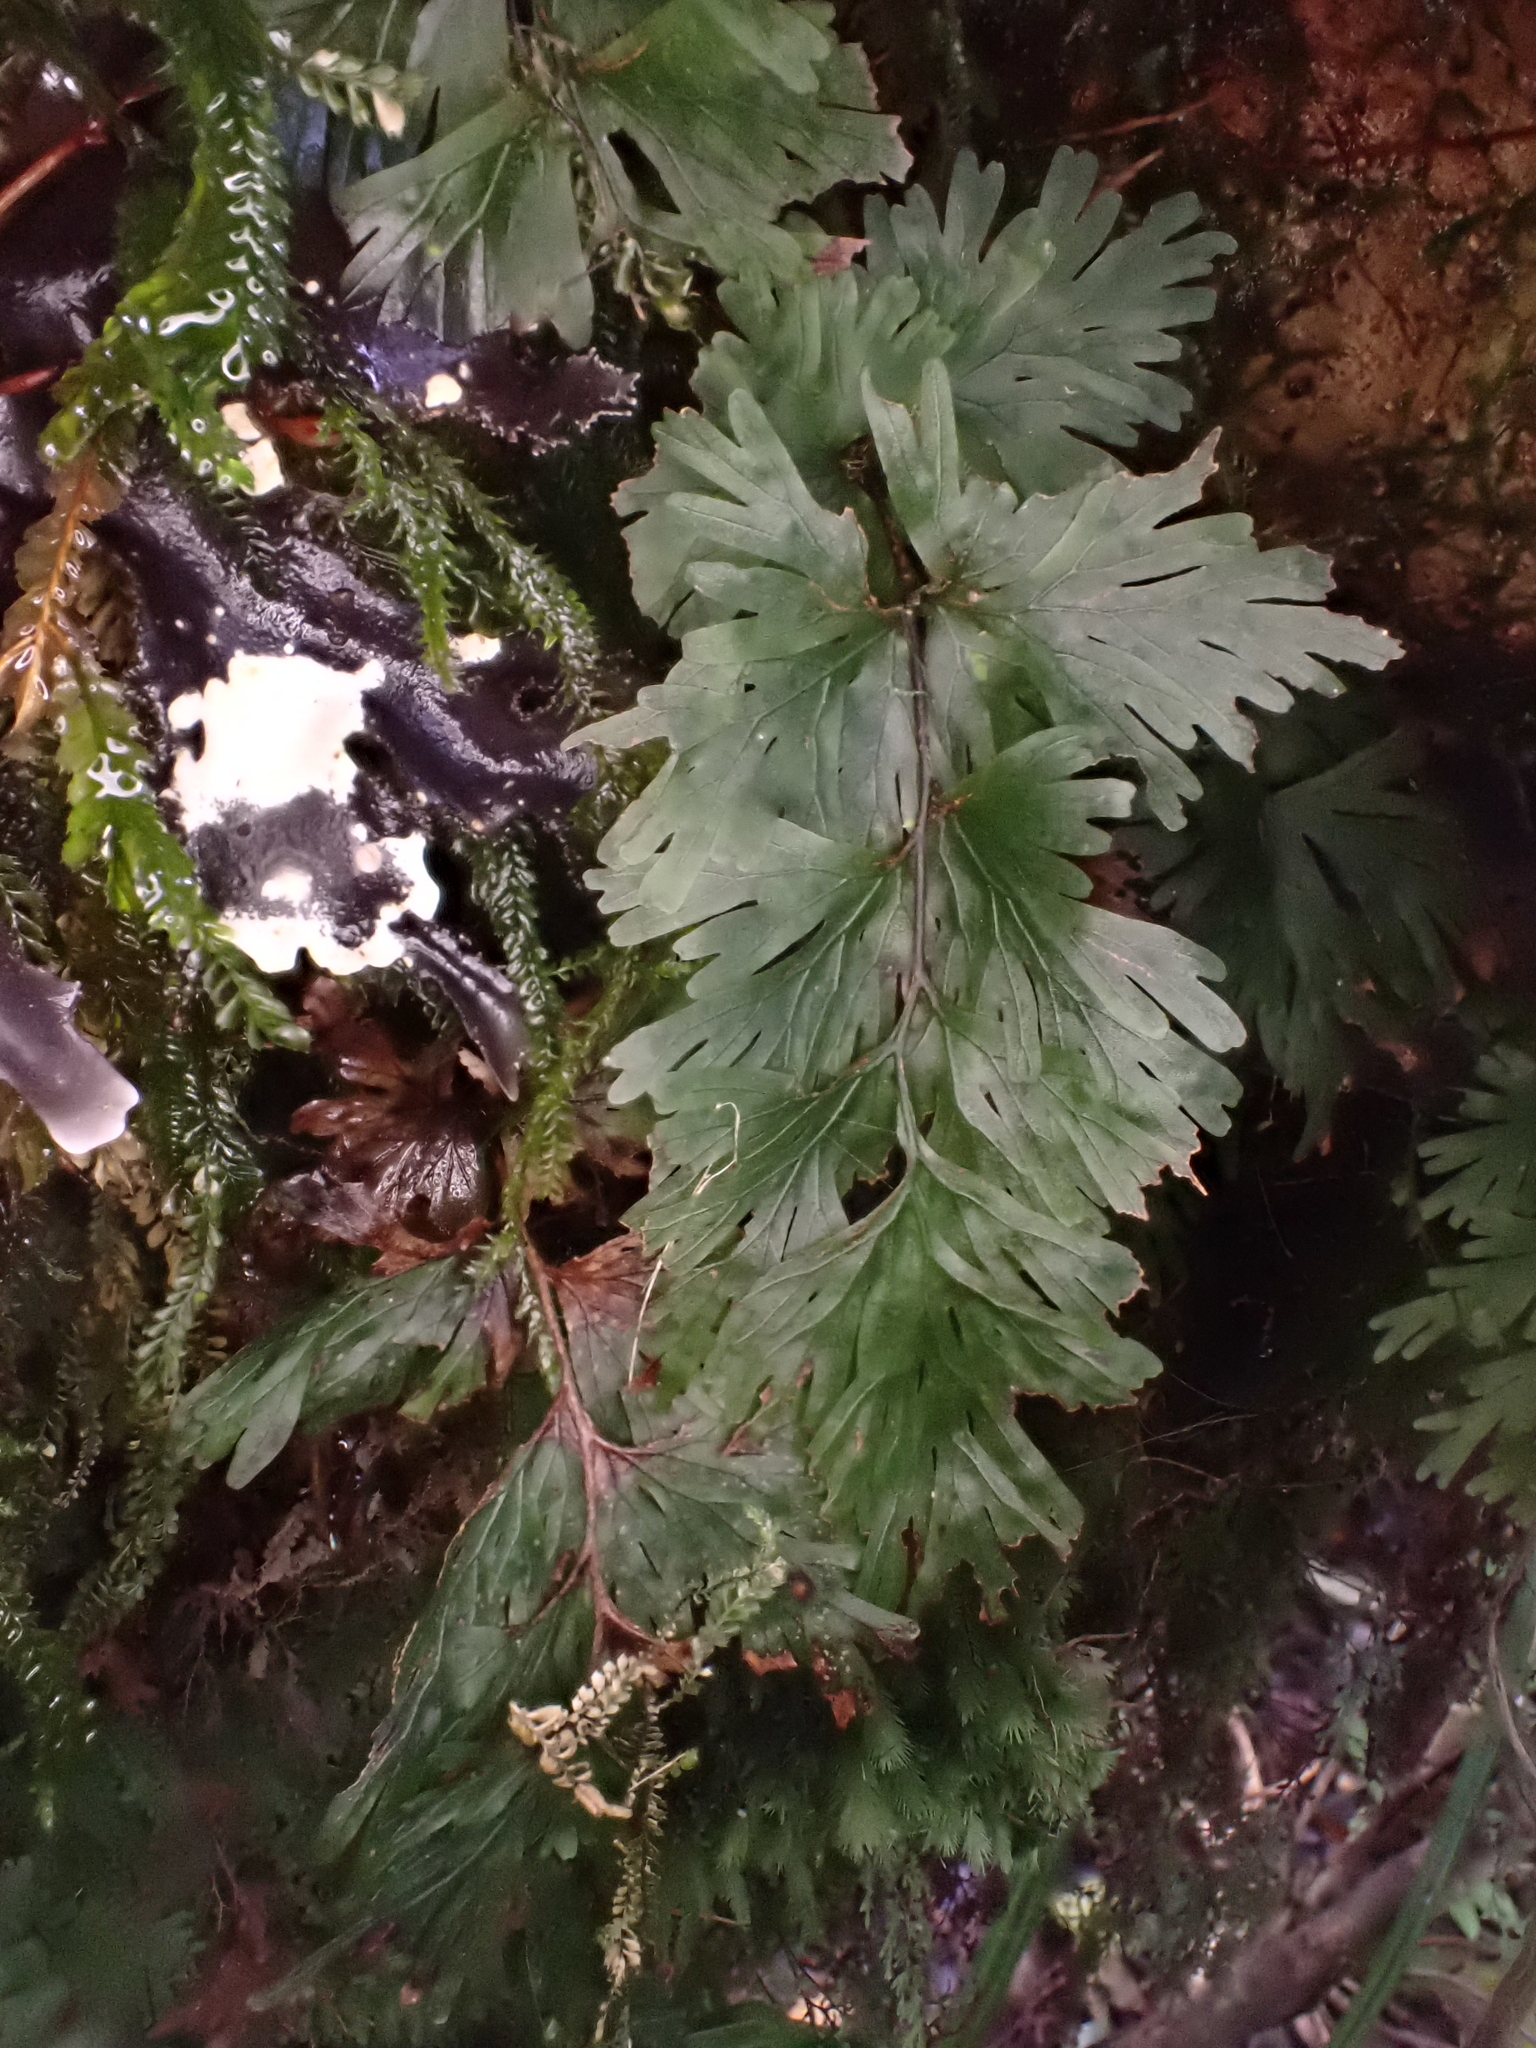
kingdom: Plantae
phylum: Tracheophyta
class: Polypodiopsida
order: Hymenophyllales
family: Hymenophyllaceae
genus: Hymenophyllum
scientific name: Hymenophyllum flabellatum
